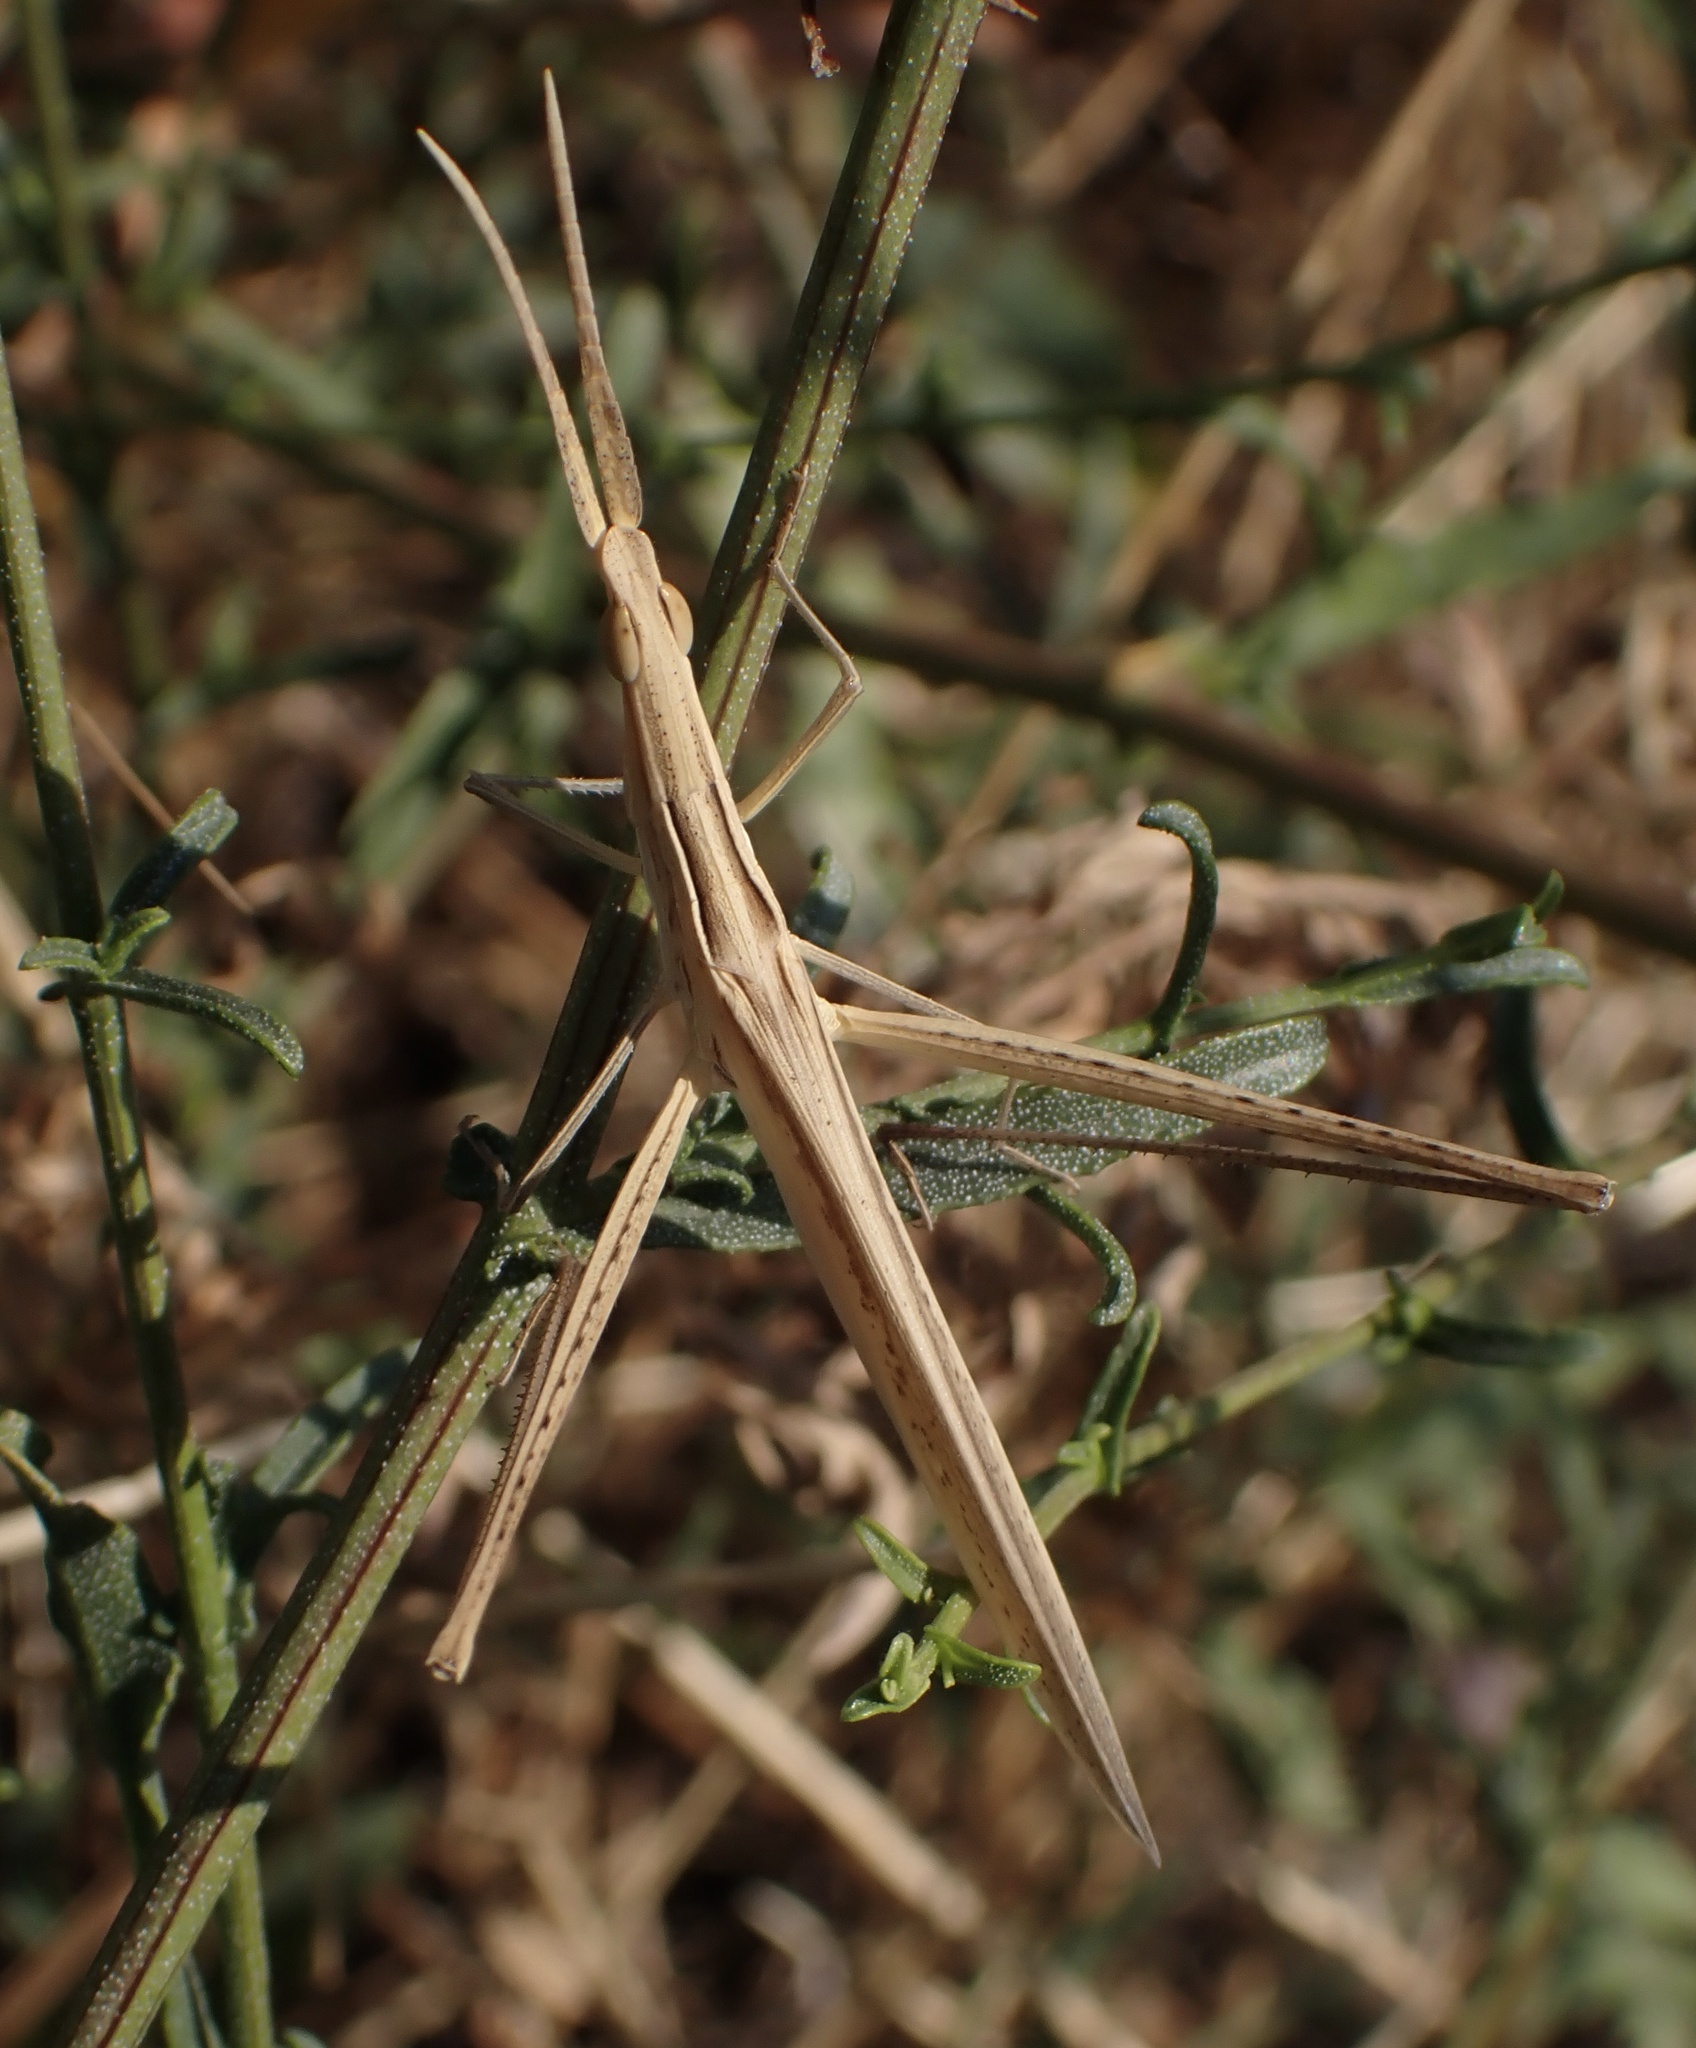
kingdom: Animalia
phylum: Arthropoda
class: Insecta
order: Orthoptera
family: Acrididae
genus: Acrida
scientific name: Acrida ungarica
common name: Common cone-headed grasshopper
